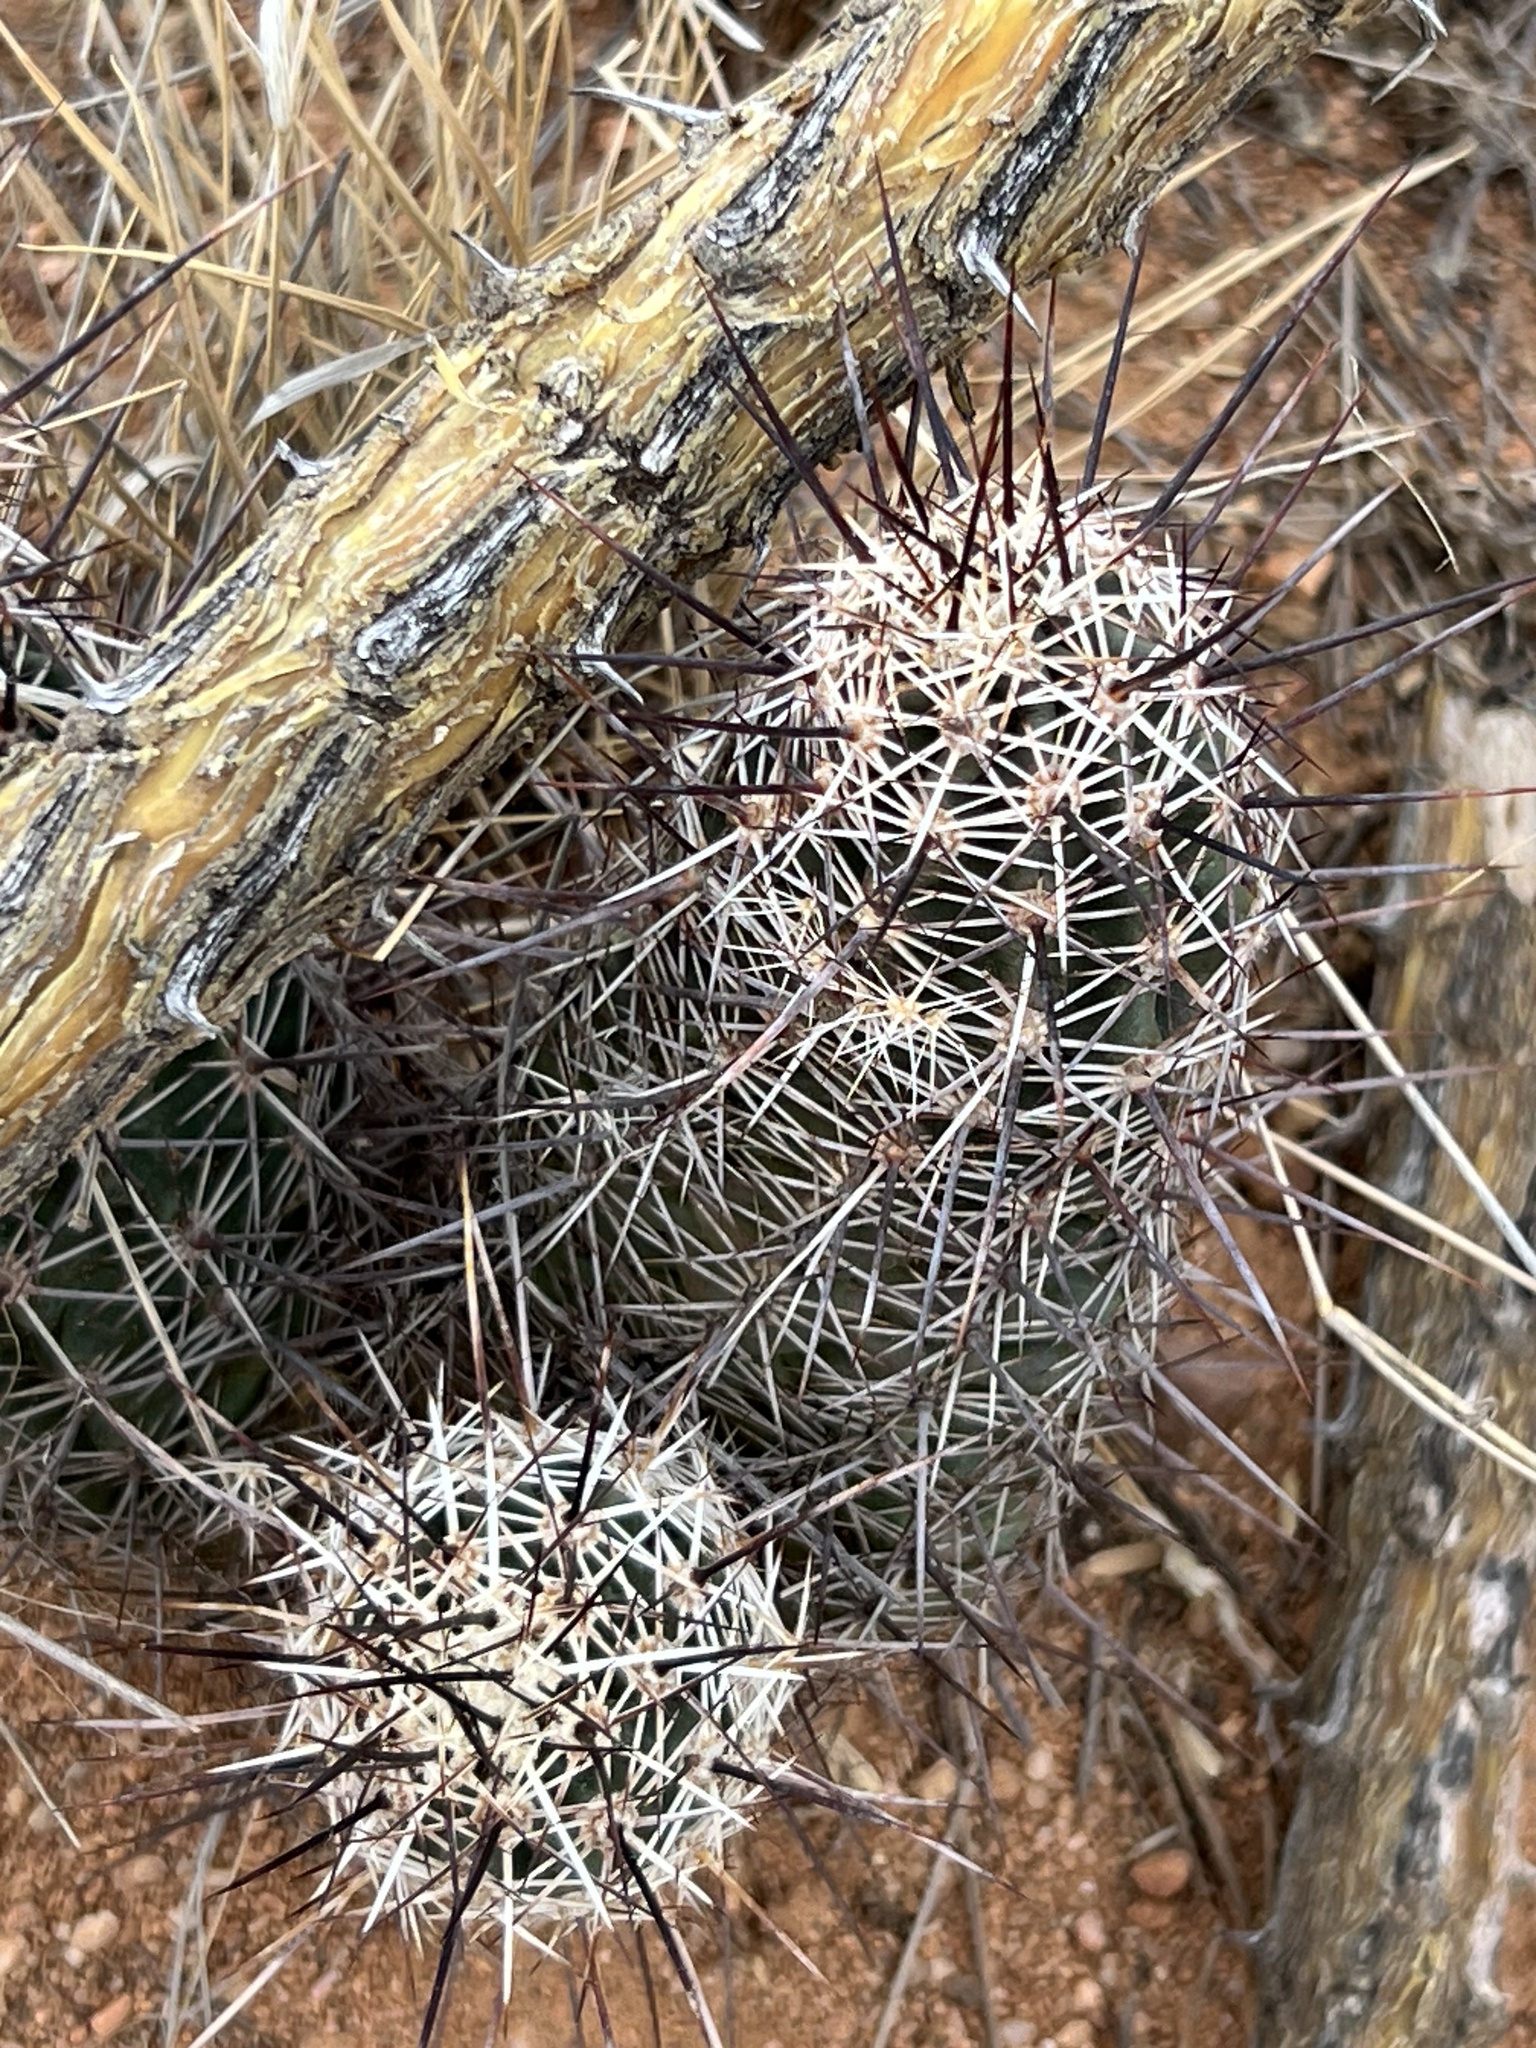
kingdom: Plantae
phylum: Tracheophyta
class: Magnoliopsida
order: Caryophyllales
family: Cactaceae
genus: Echinocereus
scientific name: Echinocereus fasciculatus
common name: Bundle hedgehog
